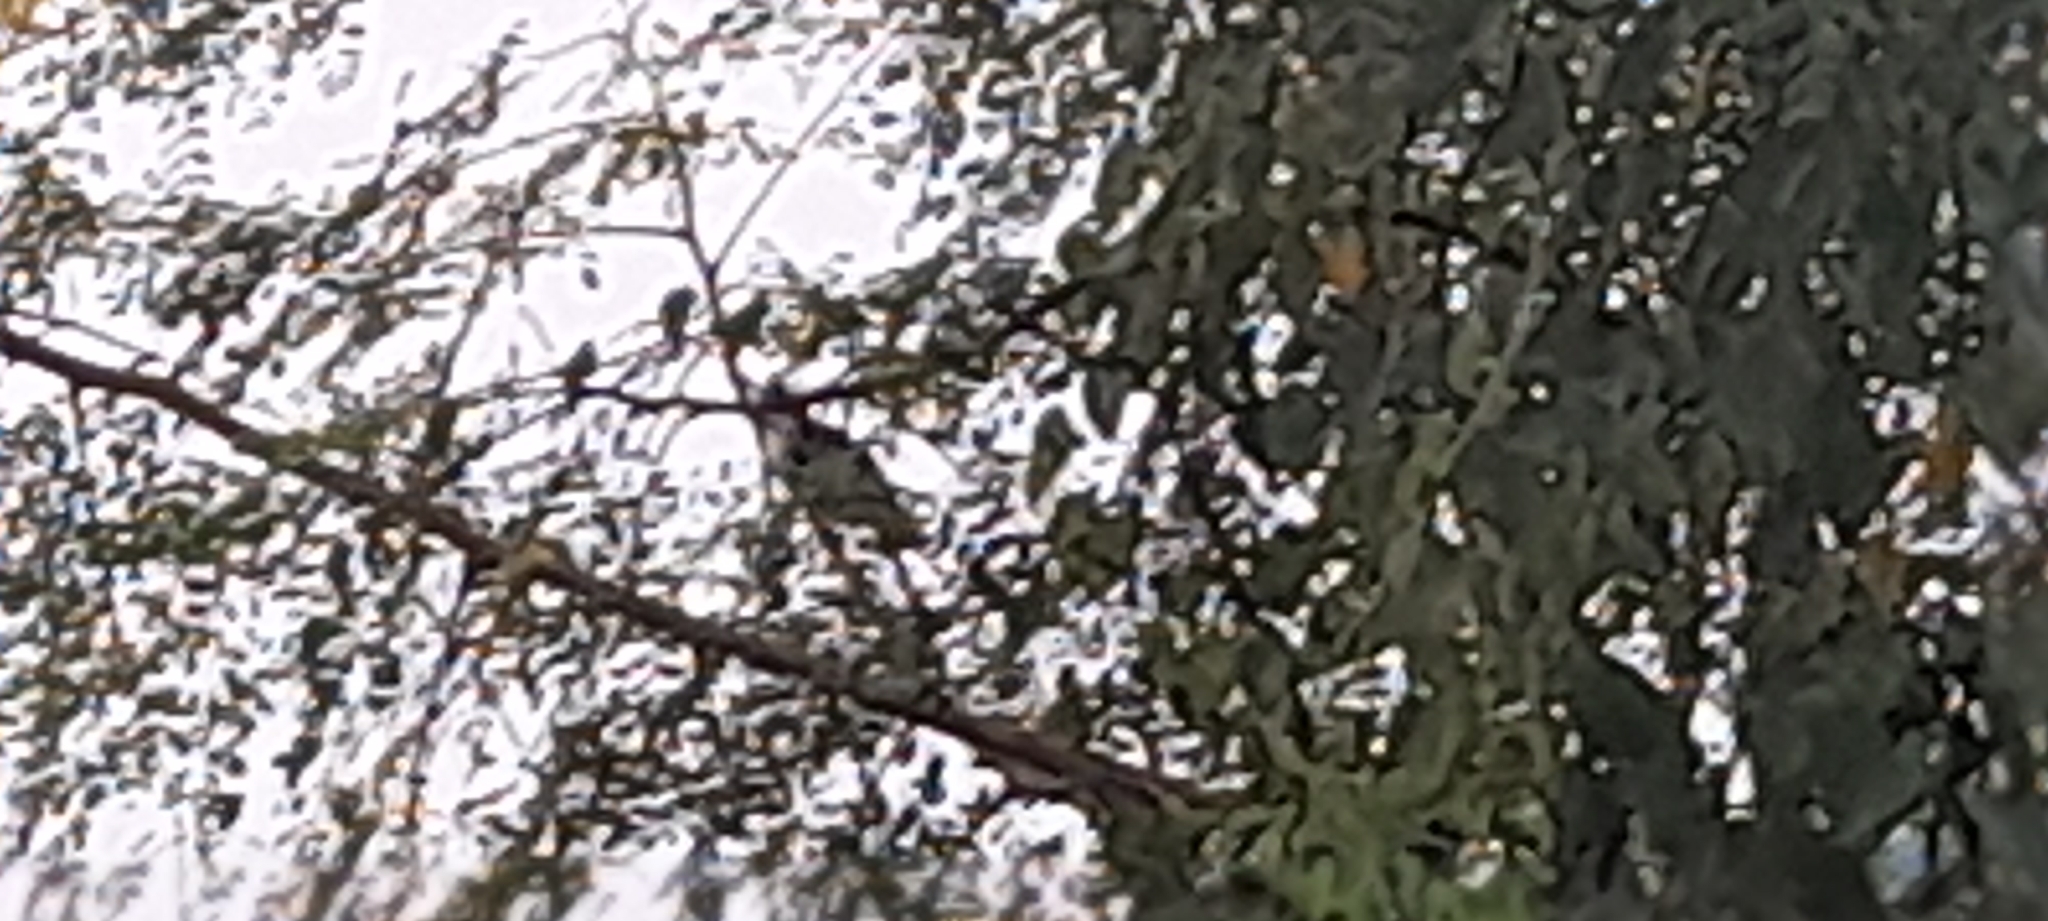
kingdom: Animalia
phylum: Chordata
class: Aves
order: Cuculiformes
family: Cuculidae
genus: Clamator
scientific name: Clamator jacobinus
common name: Jacobin cuckoo
